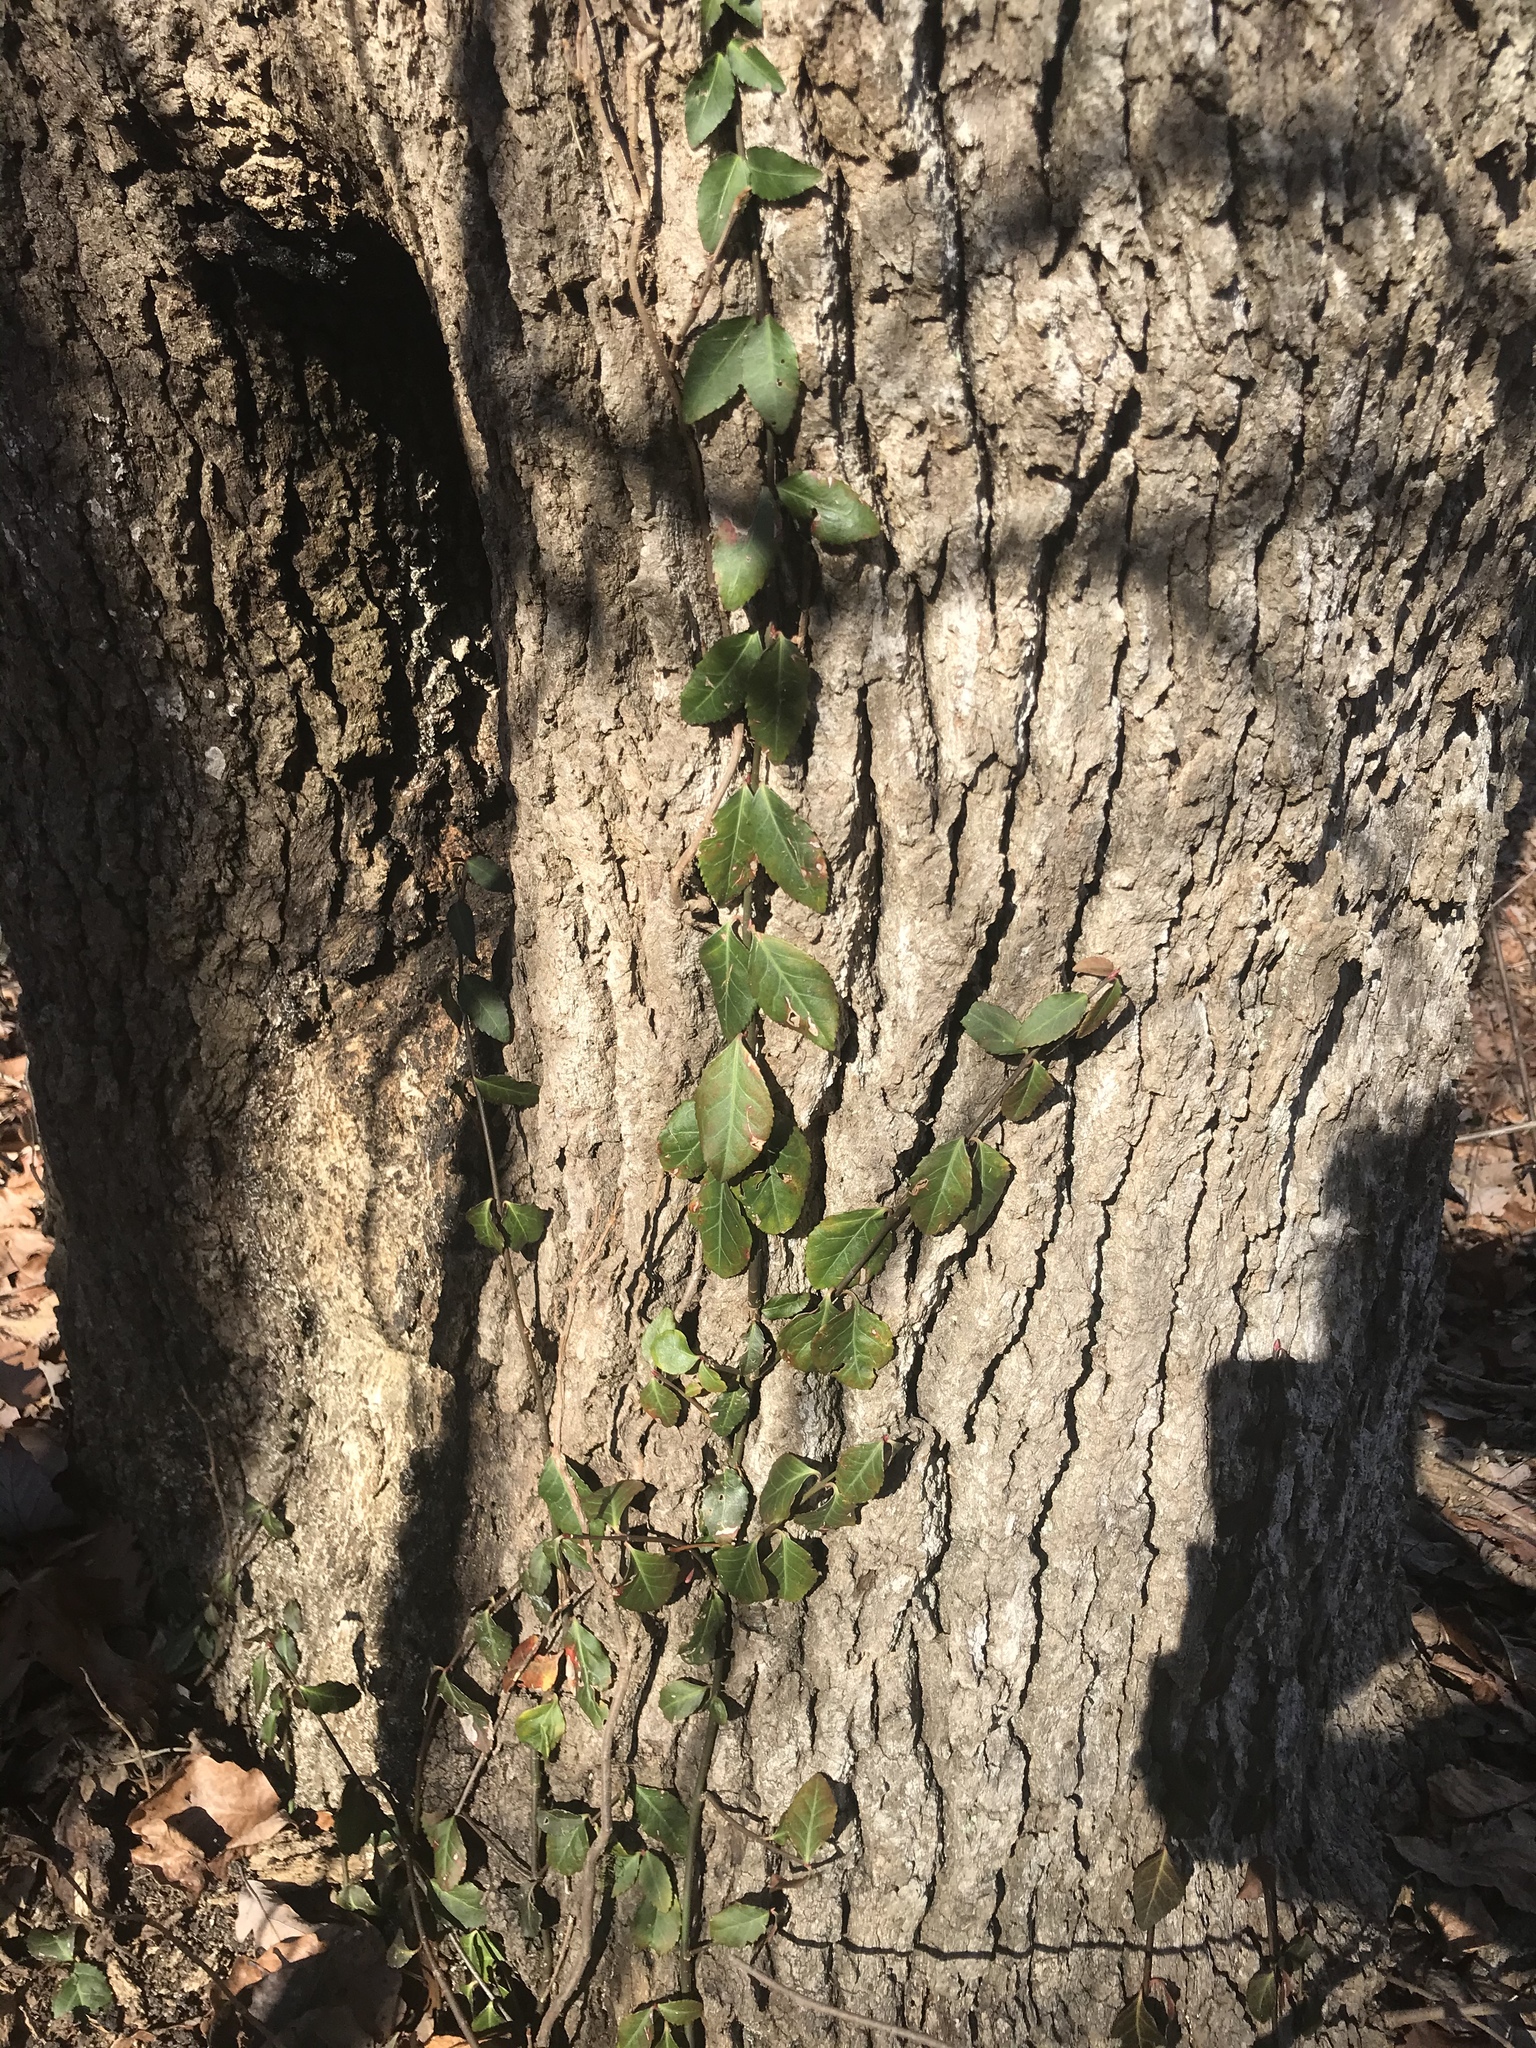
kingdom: Plantae
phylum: Tracheophyta
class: Magnoliopsida
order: Celastrales
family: Celastraceae
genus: Euonymus
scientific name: Euonymus fortunei
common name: Climbing euonymus
